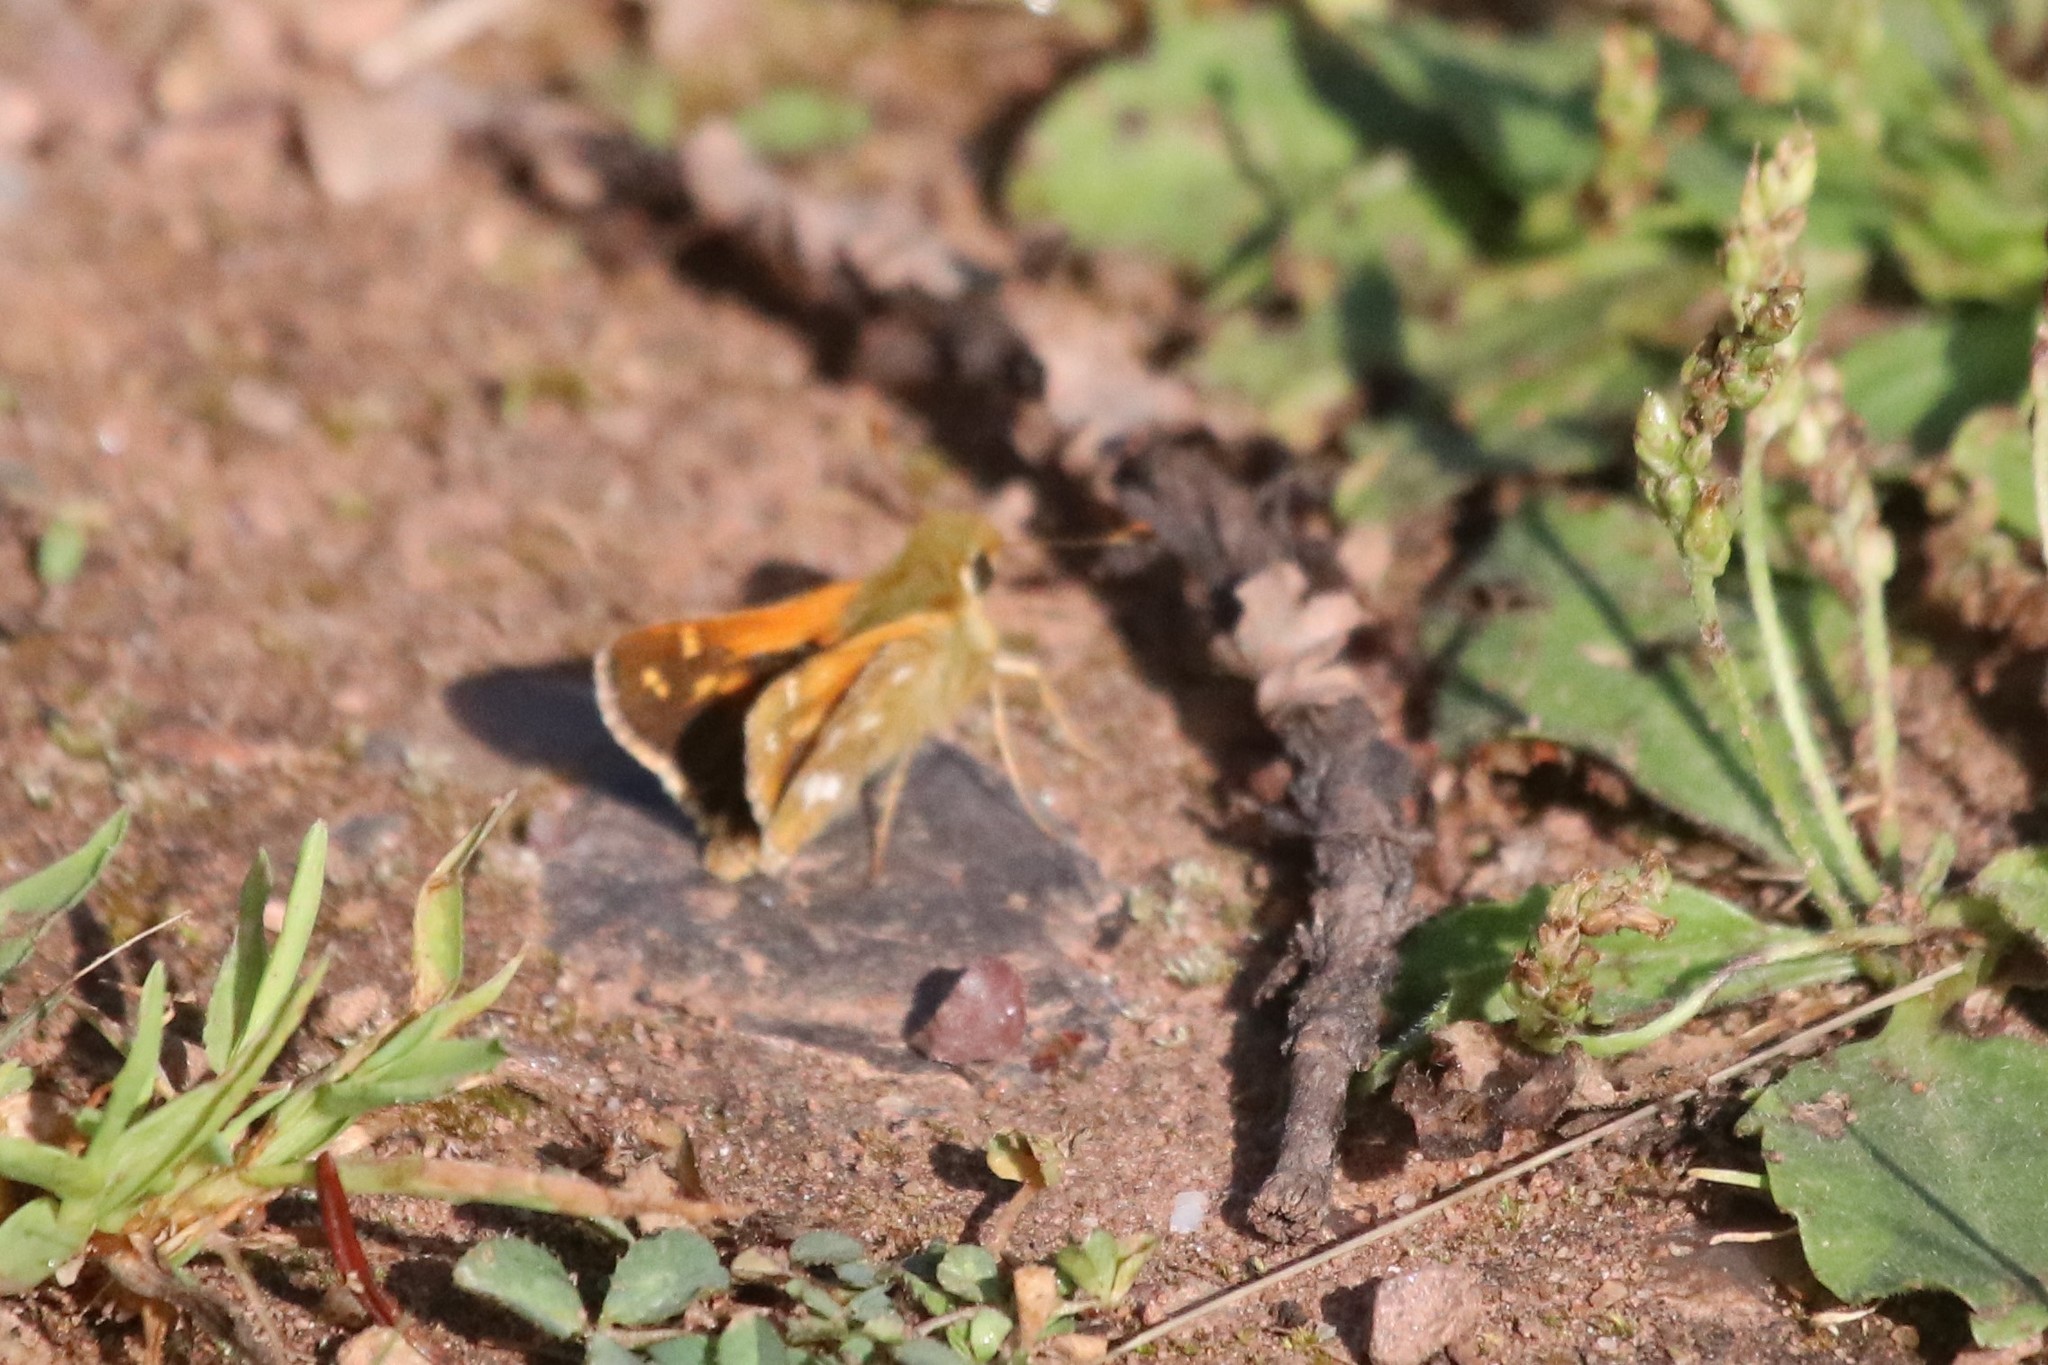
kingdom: Animalia
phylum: Arthropoda
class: Insecta
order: Lepidoptera
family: Hesperiidae
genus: Hesperia
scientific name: Hesperia comma
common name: Common branded skipper
